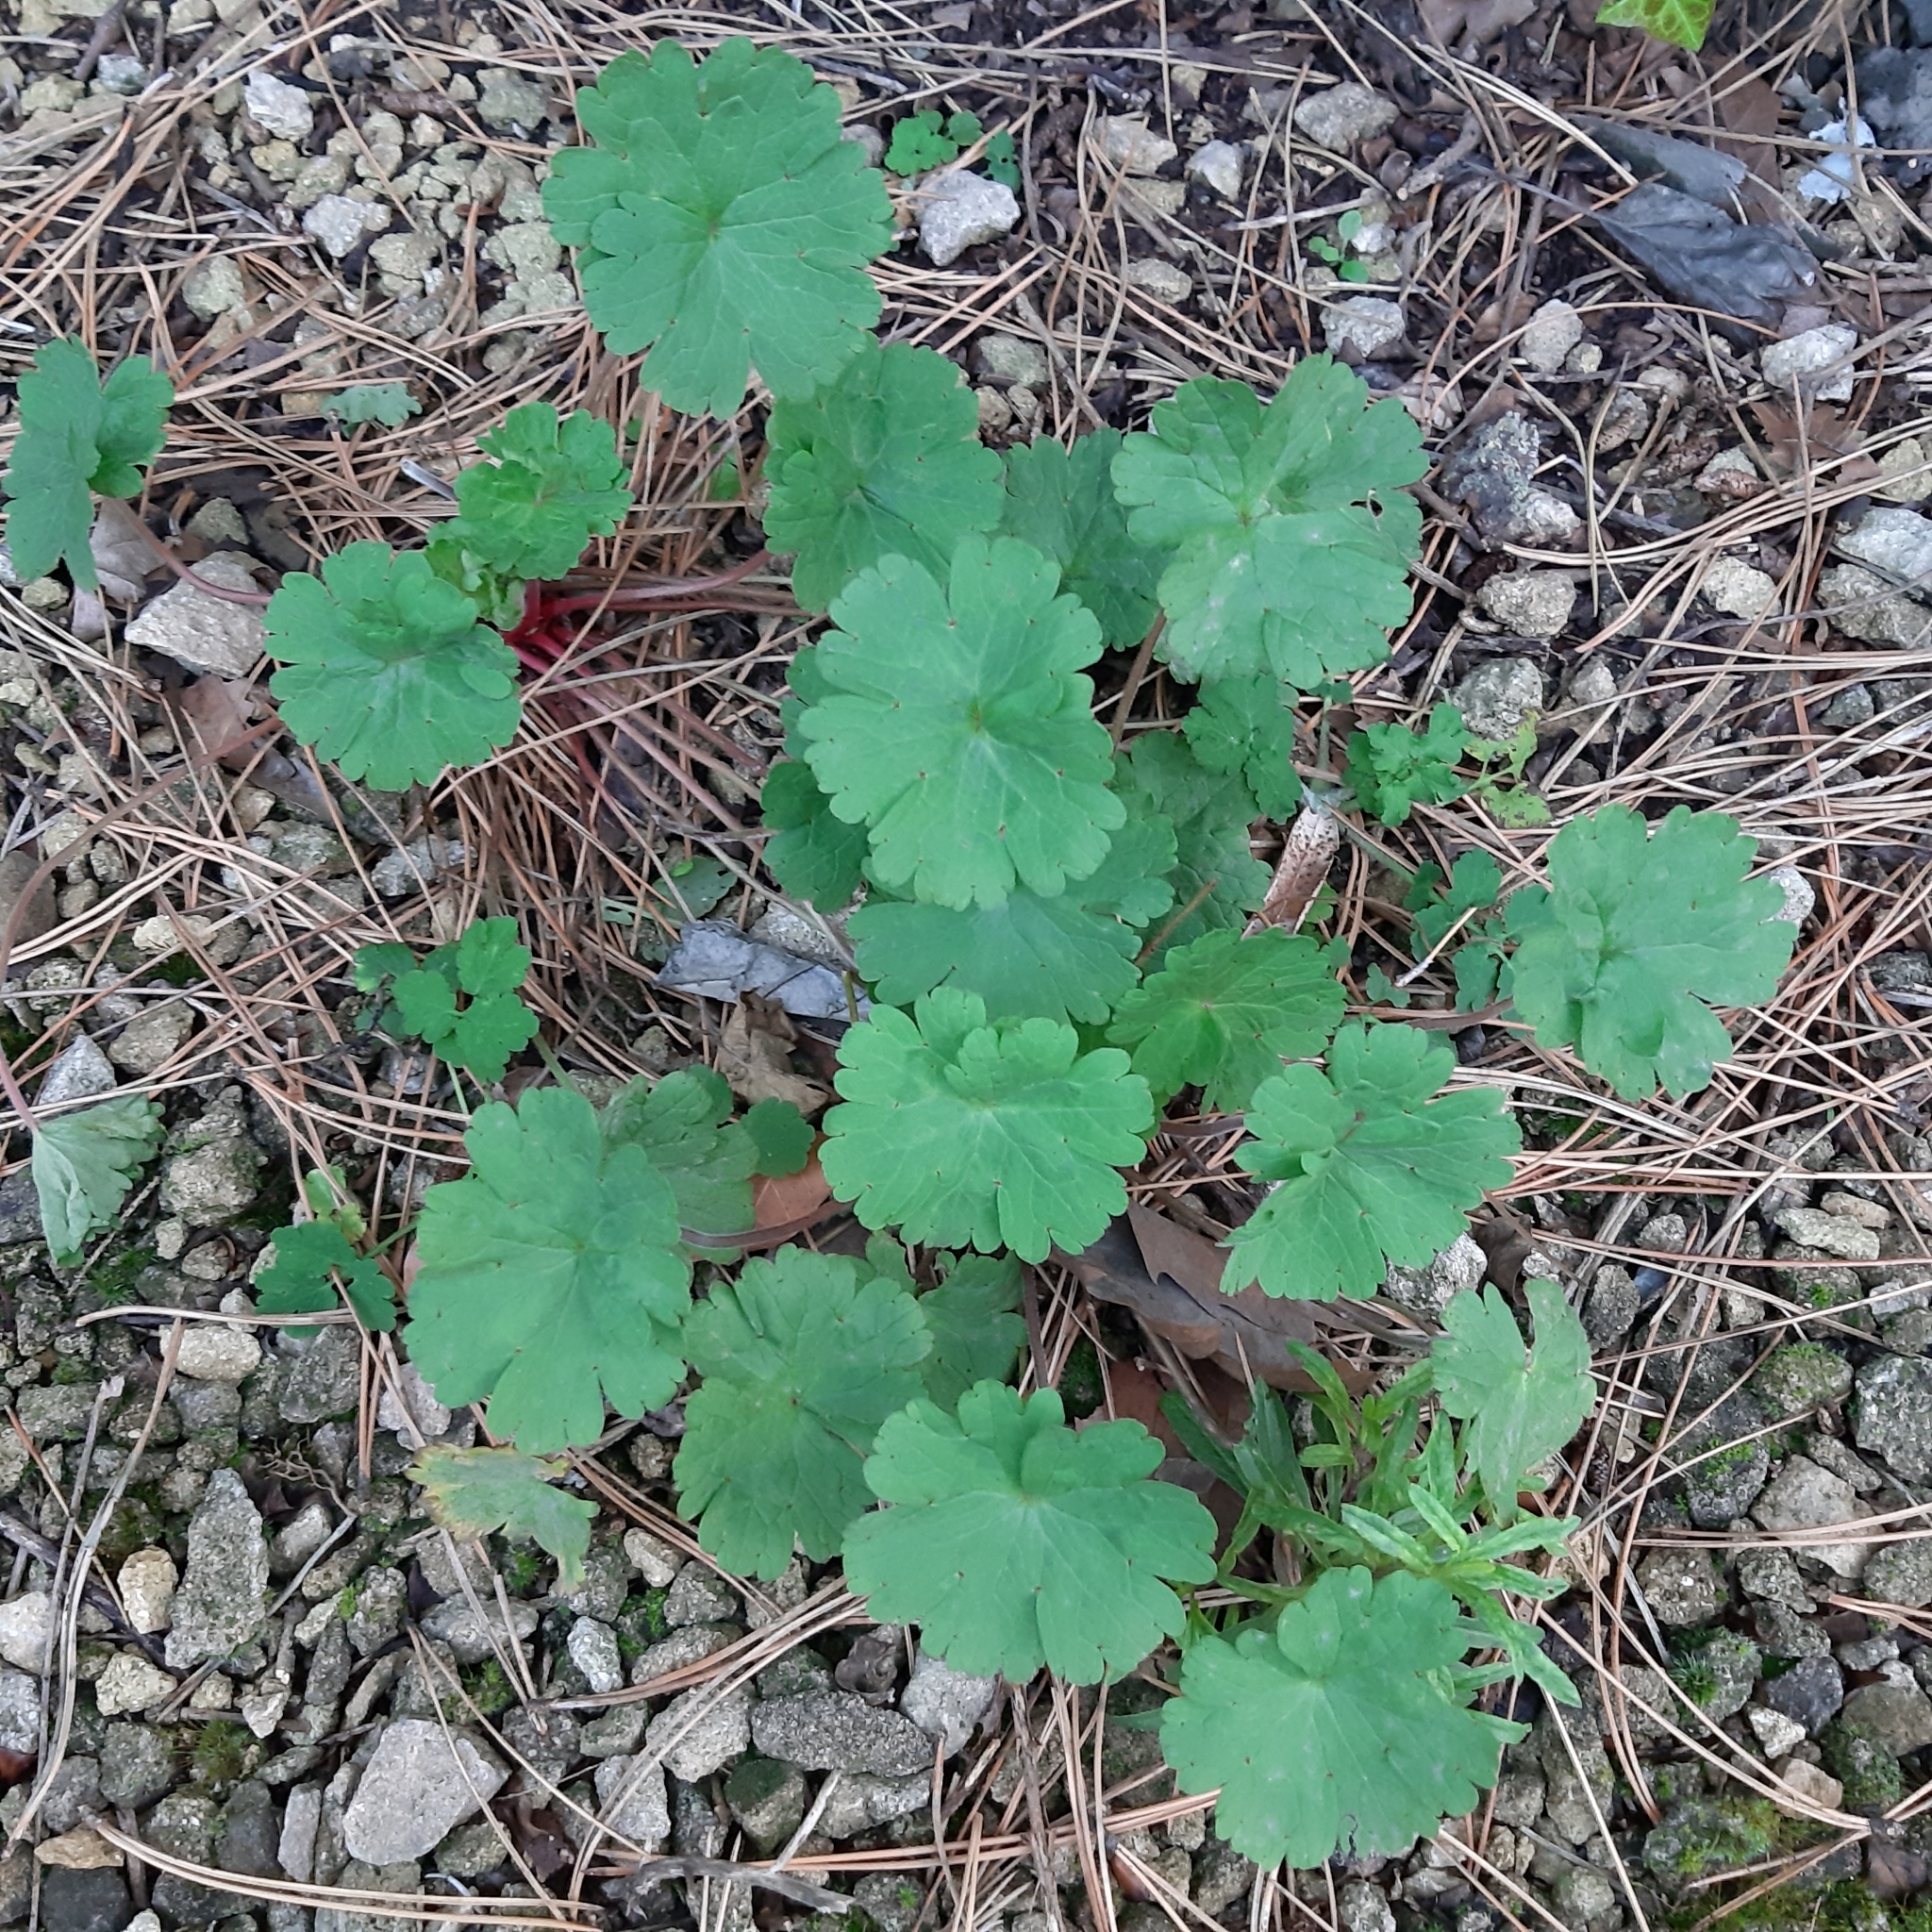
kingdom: Plantae
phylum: Tracheophyta
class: Magnoliopsida
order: Geraniales
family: Geraniaceae
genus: Geranium
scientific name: Geranium rotundifolium
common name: Round-leaved crane's-bill
